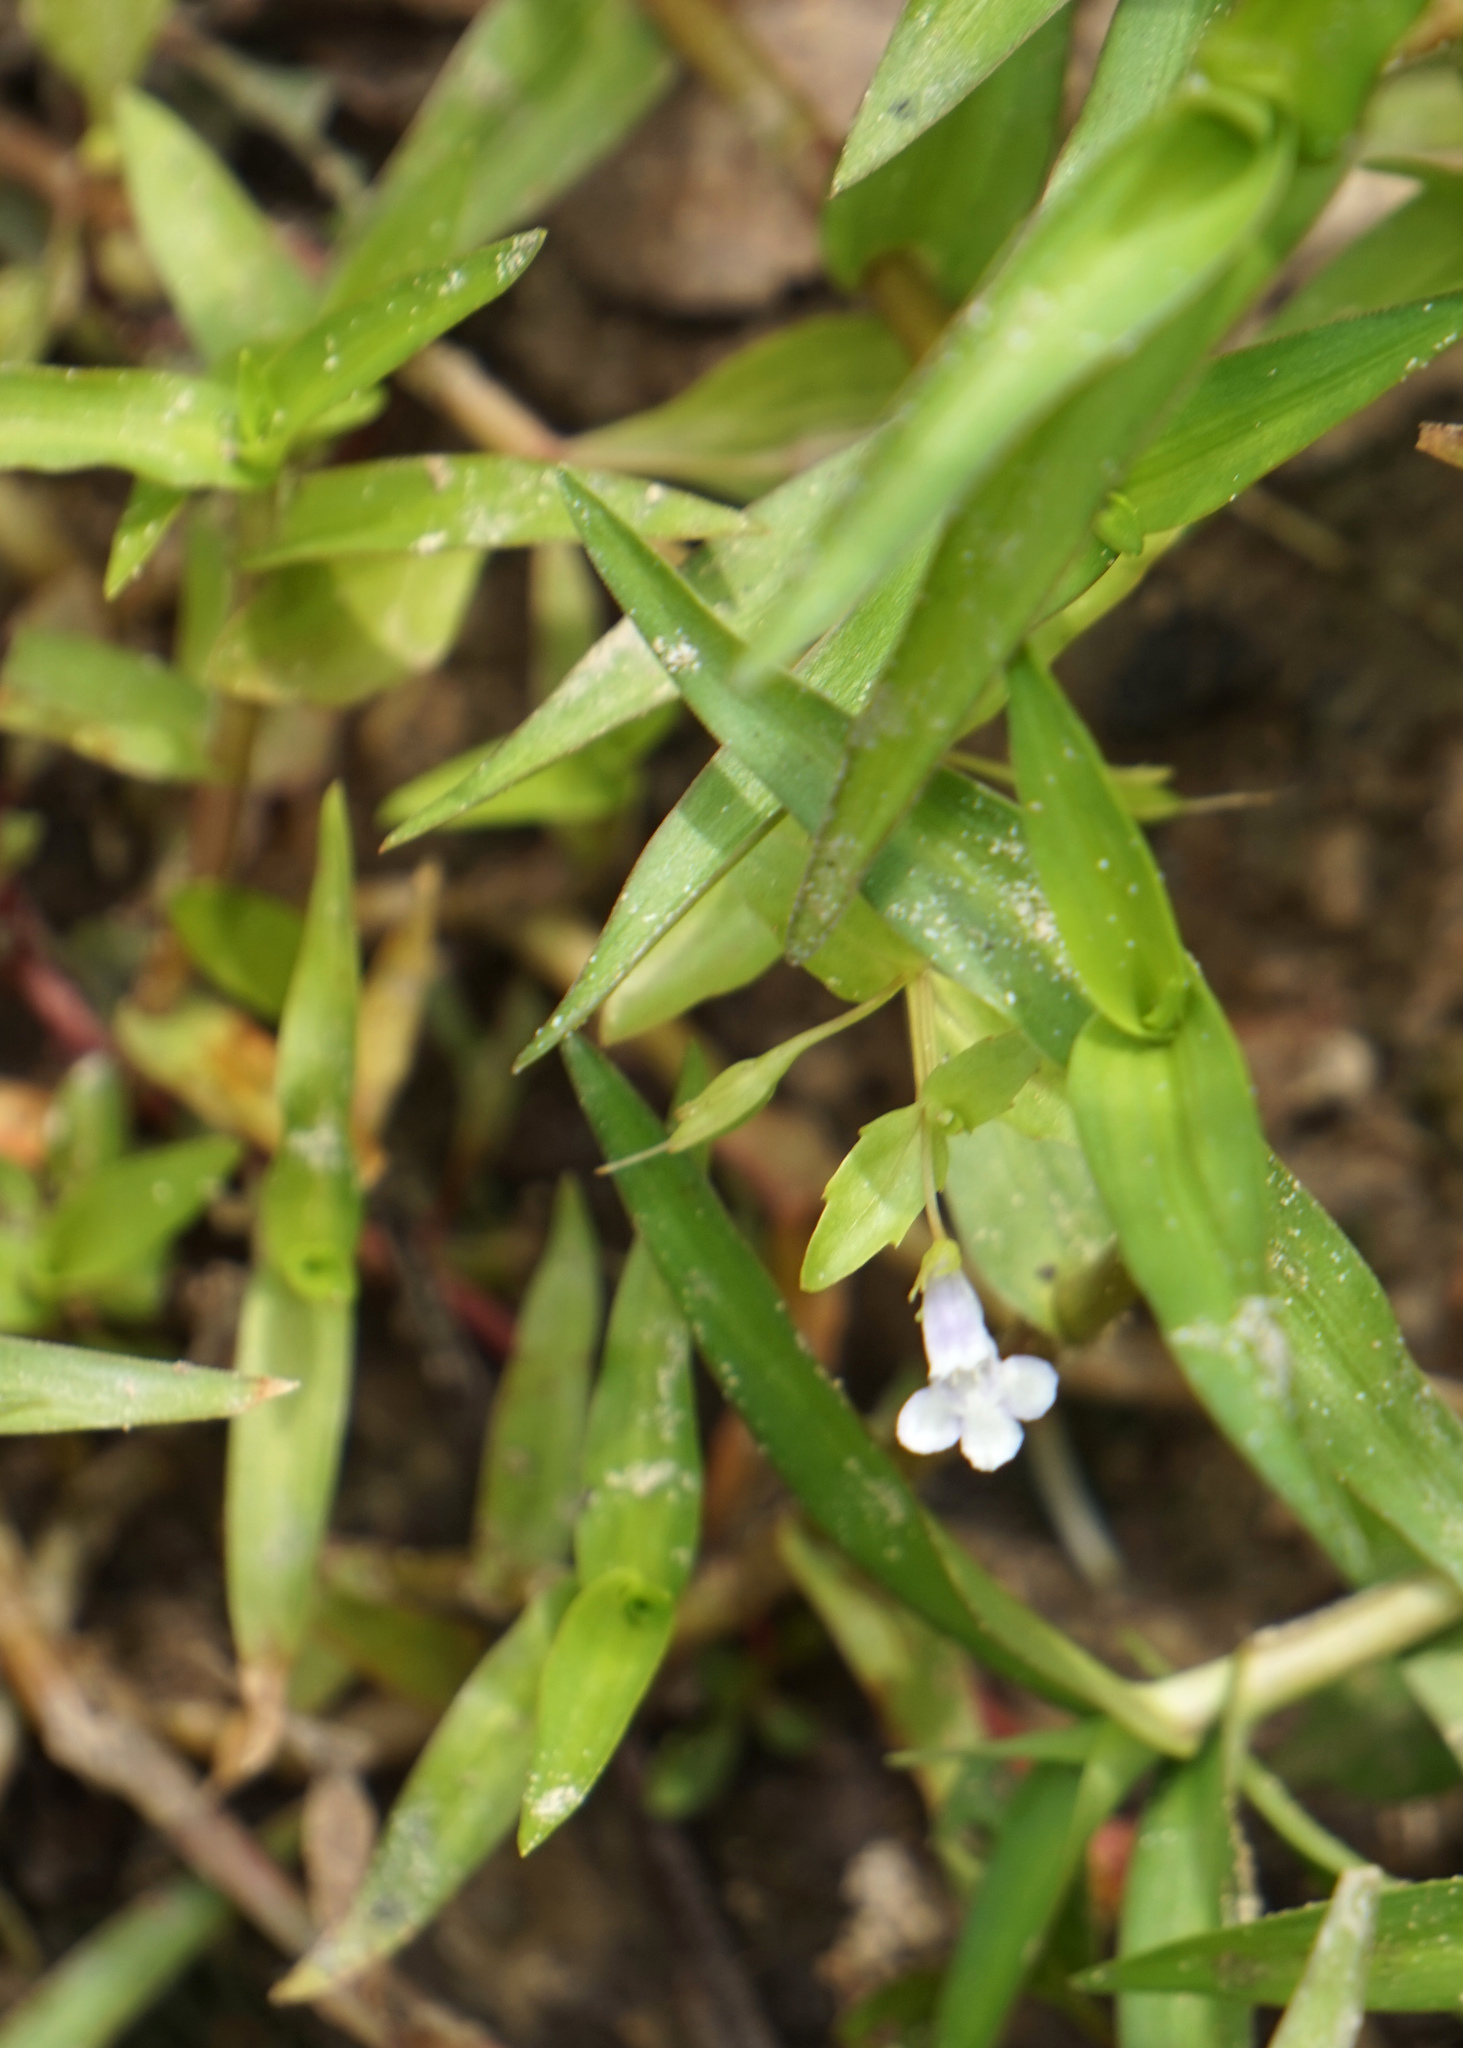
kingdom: Plantae
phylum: Tracheophyta
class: Magnoliopsida
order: Lamiales
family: Linderniaceae
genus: Lindernia
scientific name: Lindernia dubia
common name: Annual false pimpernel
